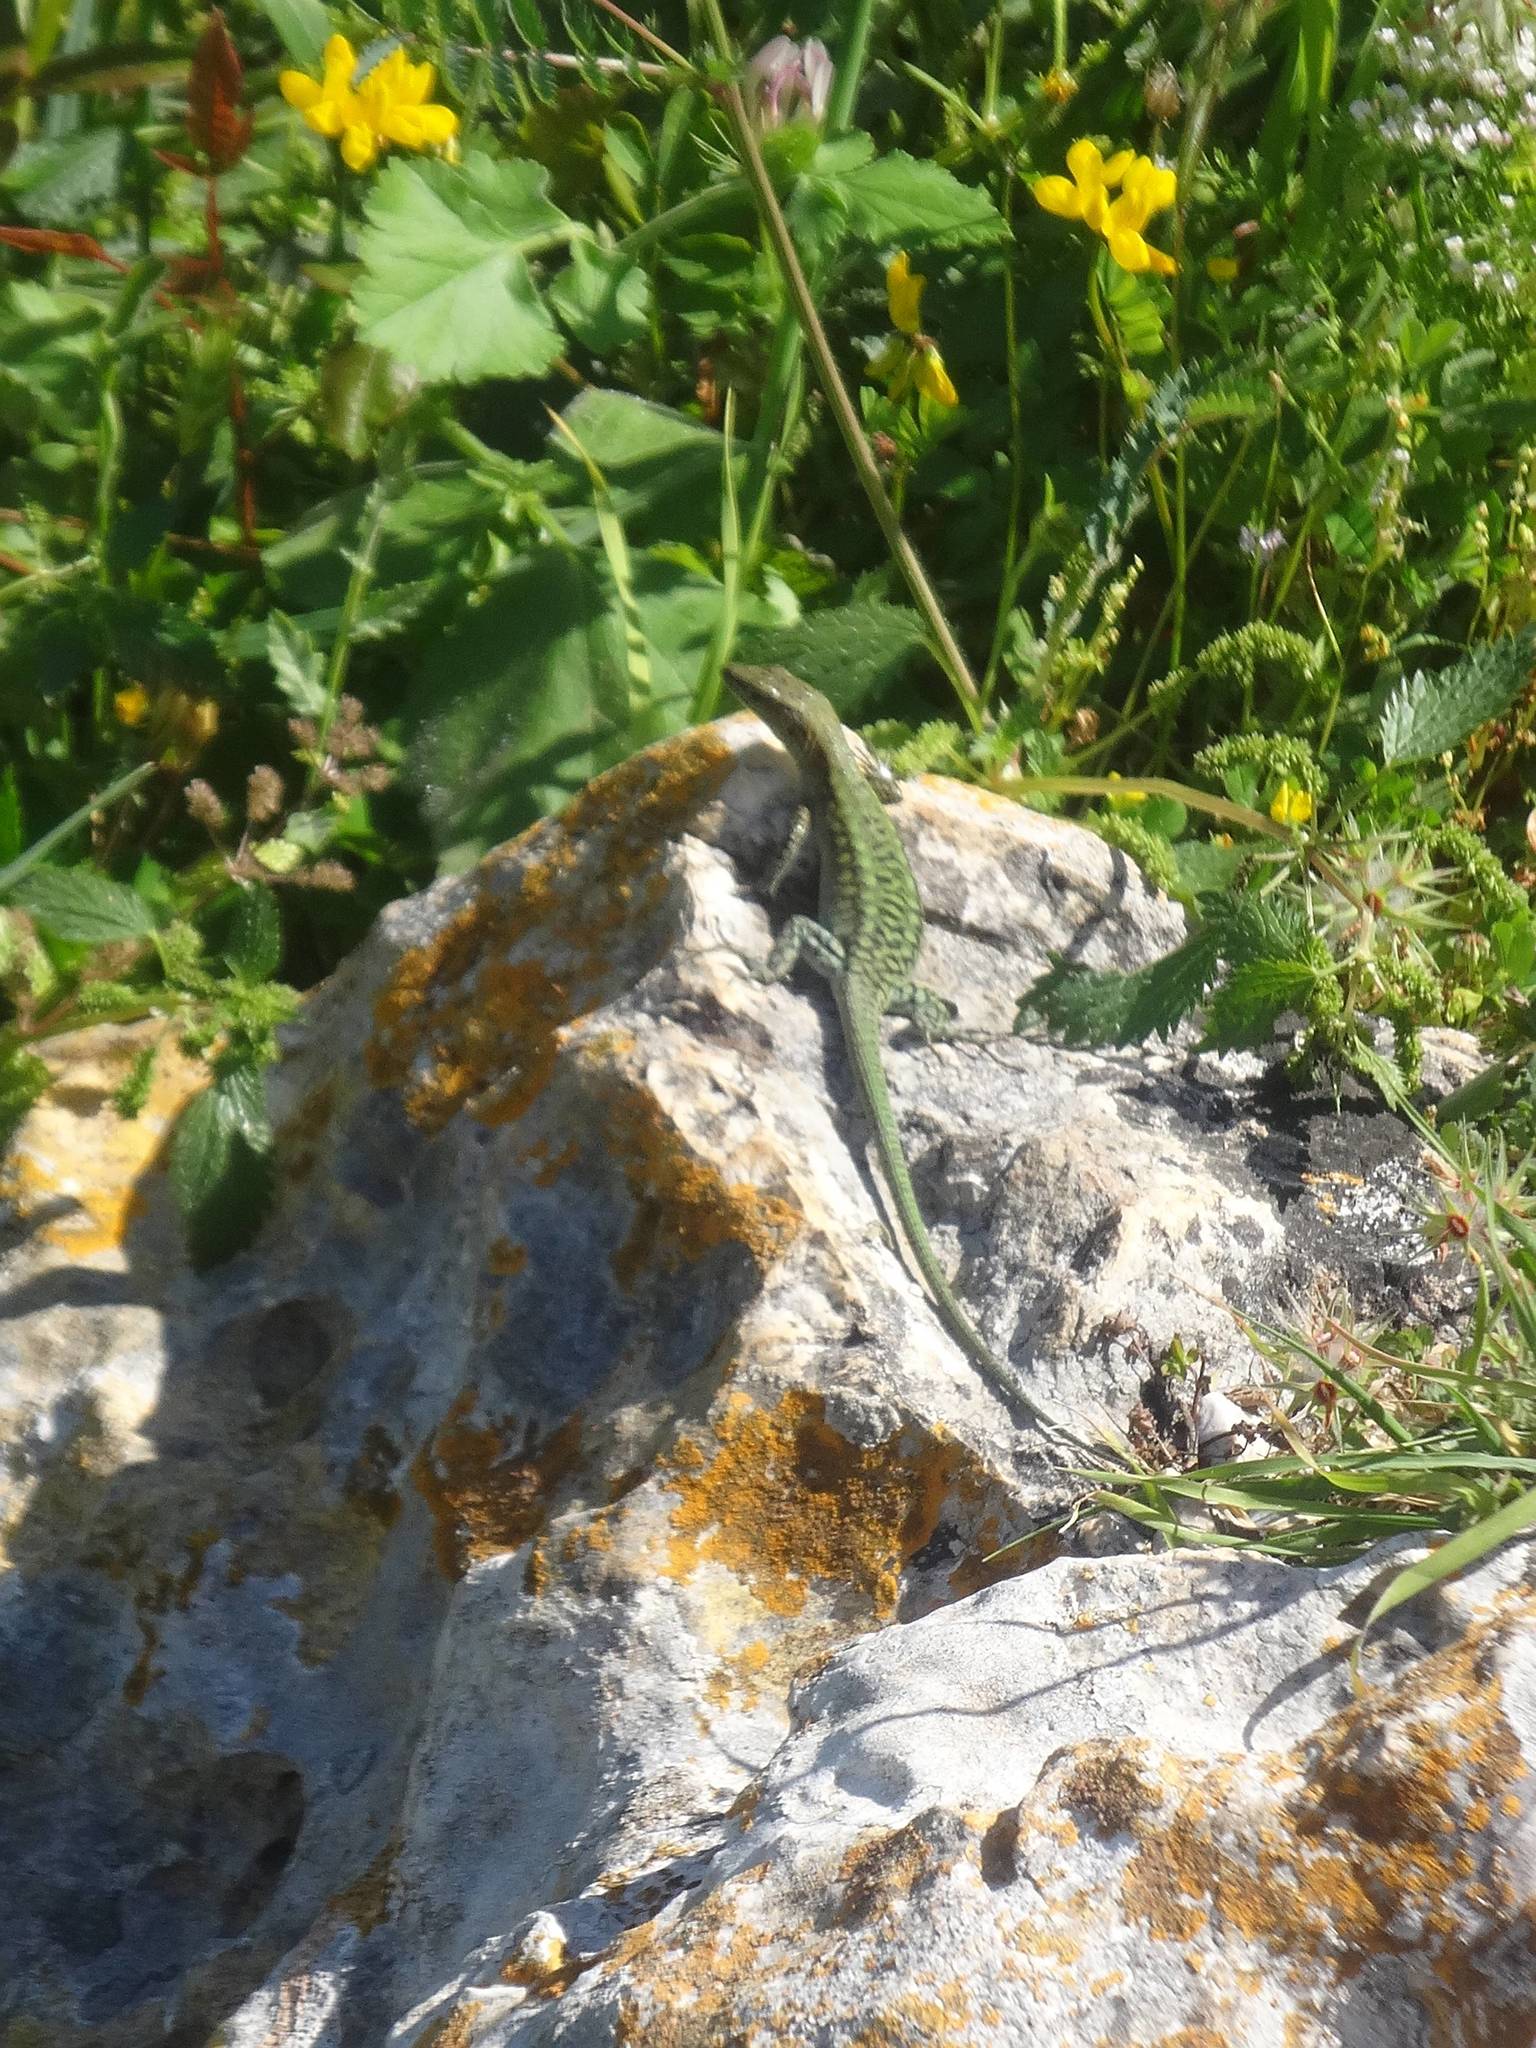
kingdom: Animalia
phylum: Chordata
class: Squamata
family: Lacertidae
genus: Anatololacerta
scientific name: Anatololacerta finikensis
